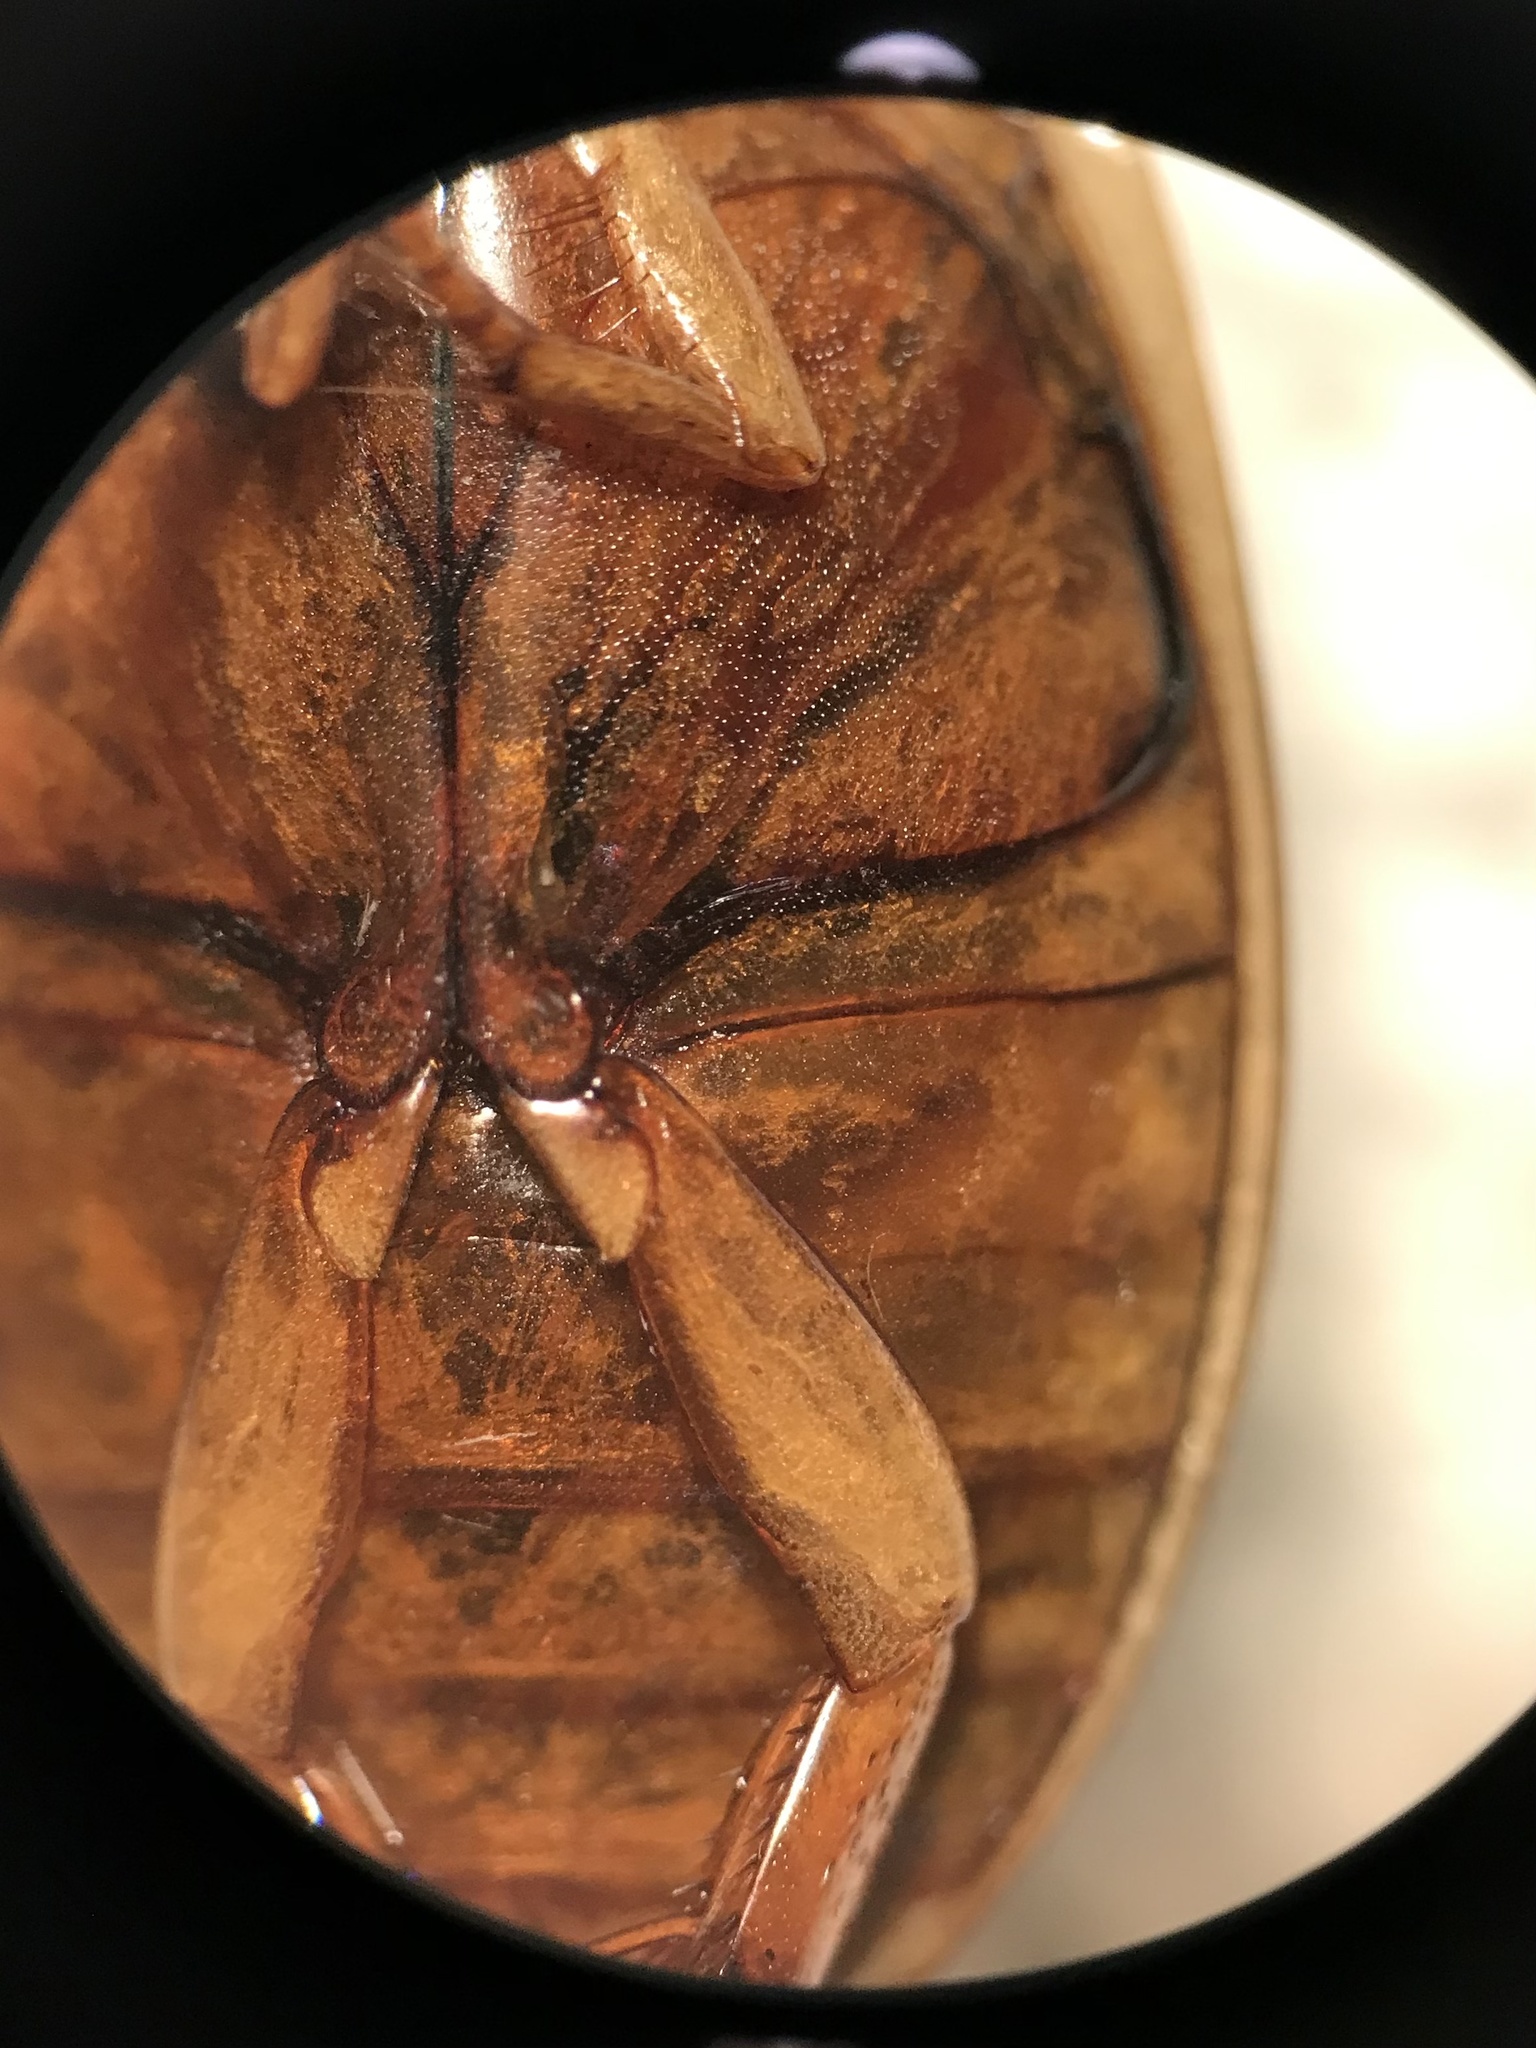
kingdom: Animalia
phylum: Arthropoda
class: Insecta
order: Coleoptera
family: Dytiscidae
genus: Acilius
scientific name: Acilius sylvanus
